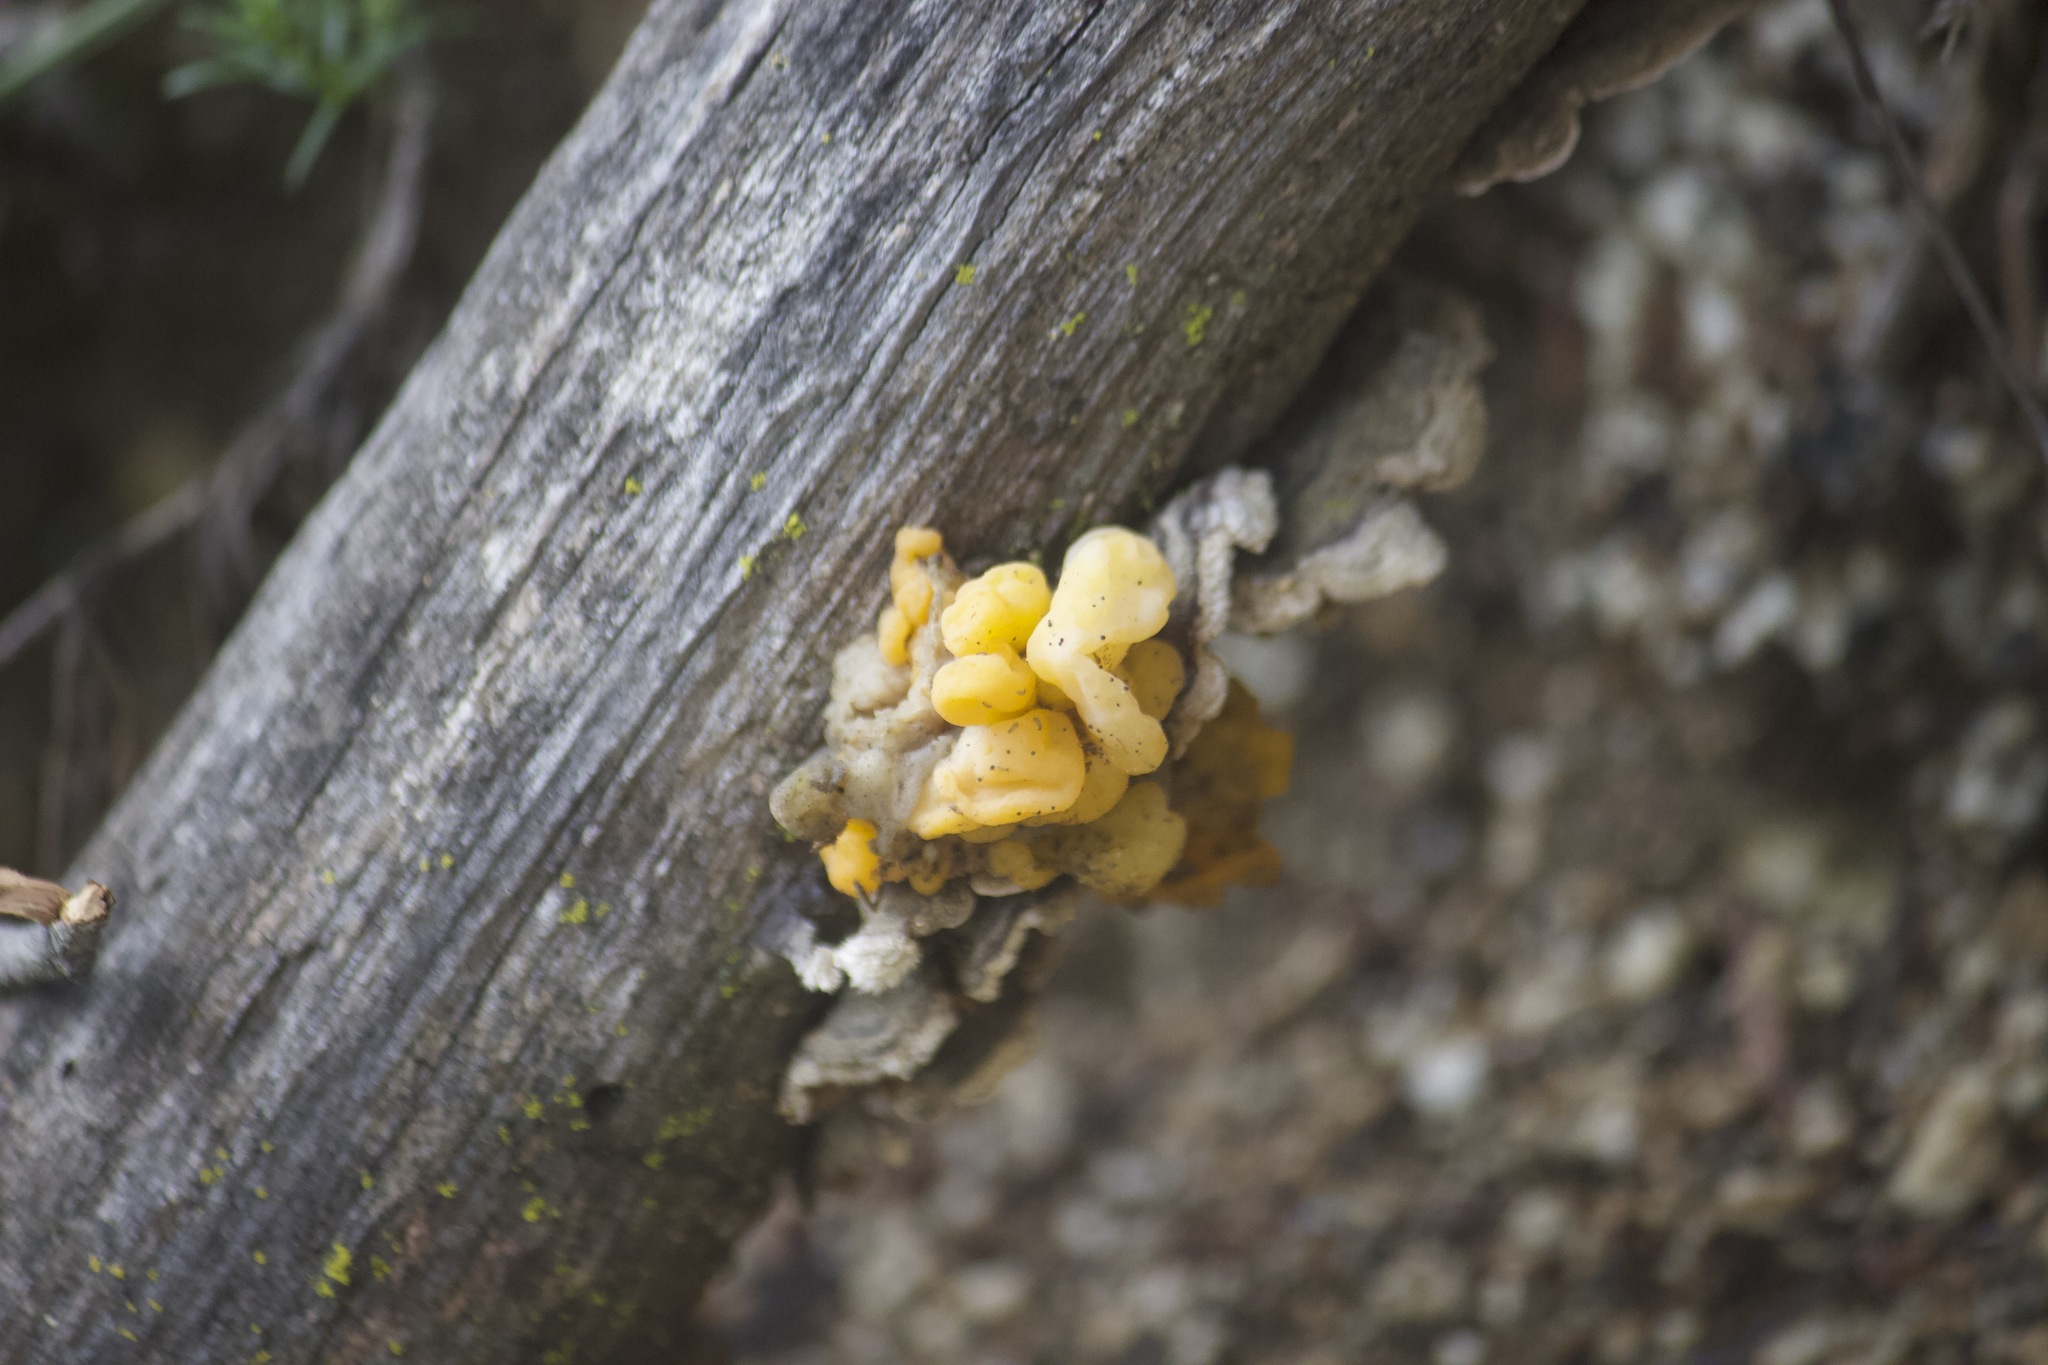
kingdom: Fungi
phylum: Basidiomycota
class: Tremellomycetes
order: Tremellales
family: Naemateliaceae
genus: Naematelia
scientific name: Naematelia aurantia
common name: Golden ear
